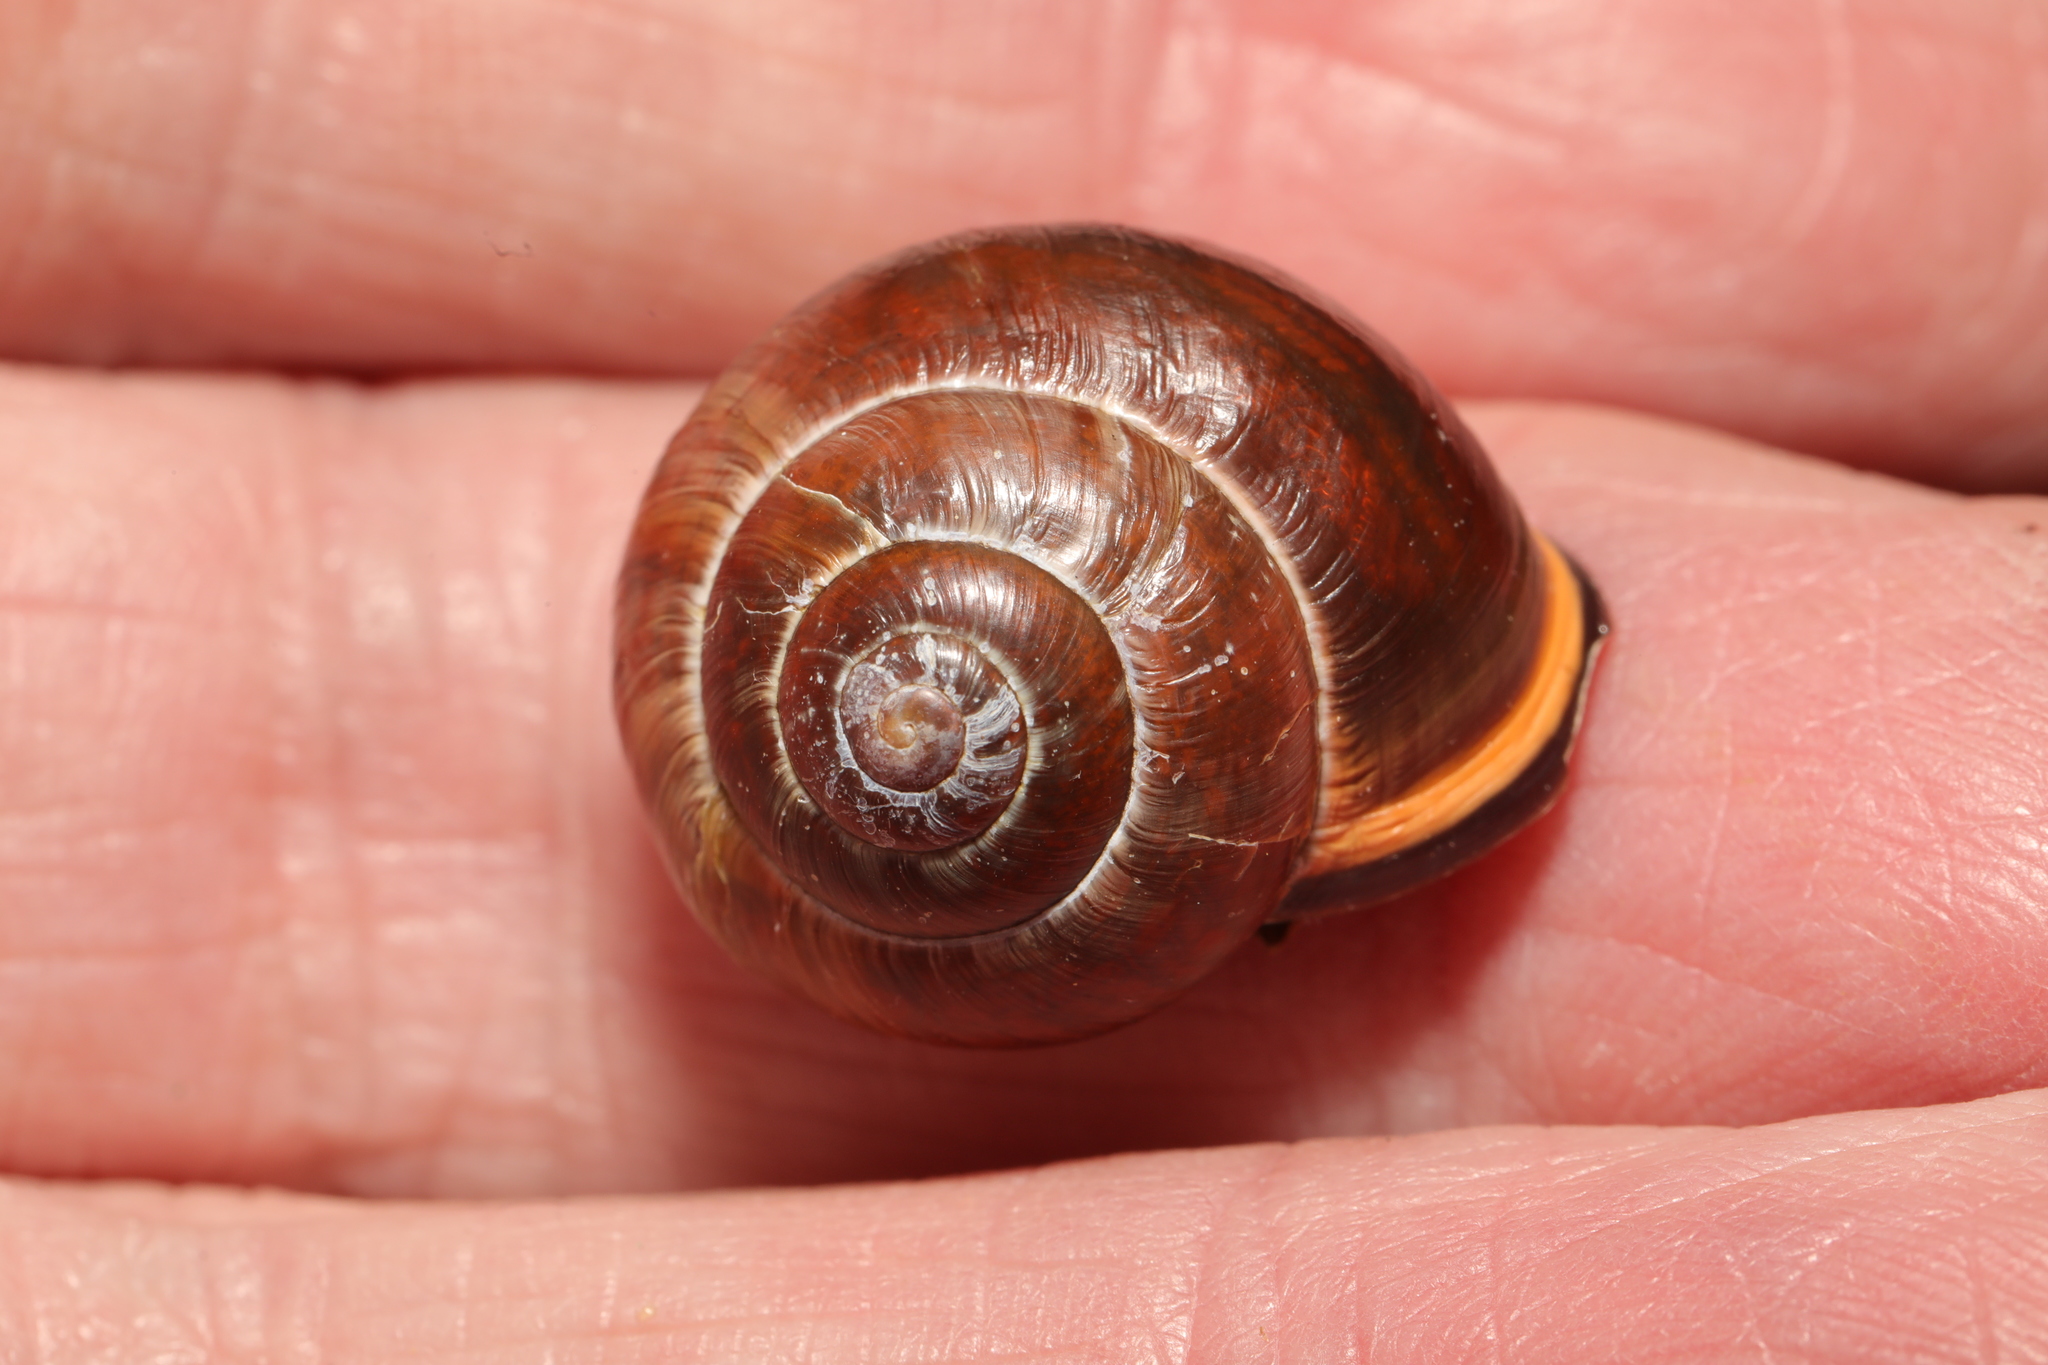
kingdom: Animalia
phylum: Mollusca
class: Gastropoda
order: Stylommatophora
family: Helicidae
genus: Cepaea
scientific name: Cepaea nemoralis
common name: Grovesnail
